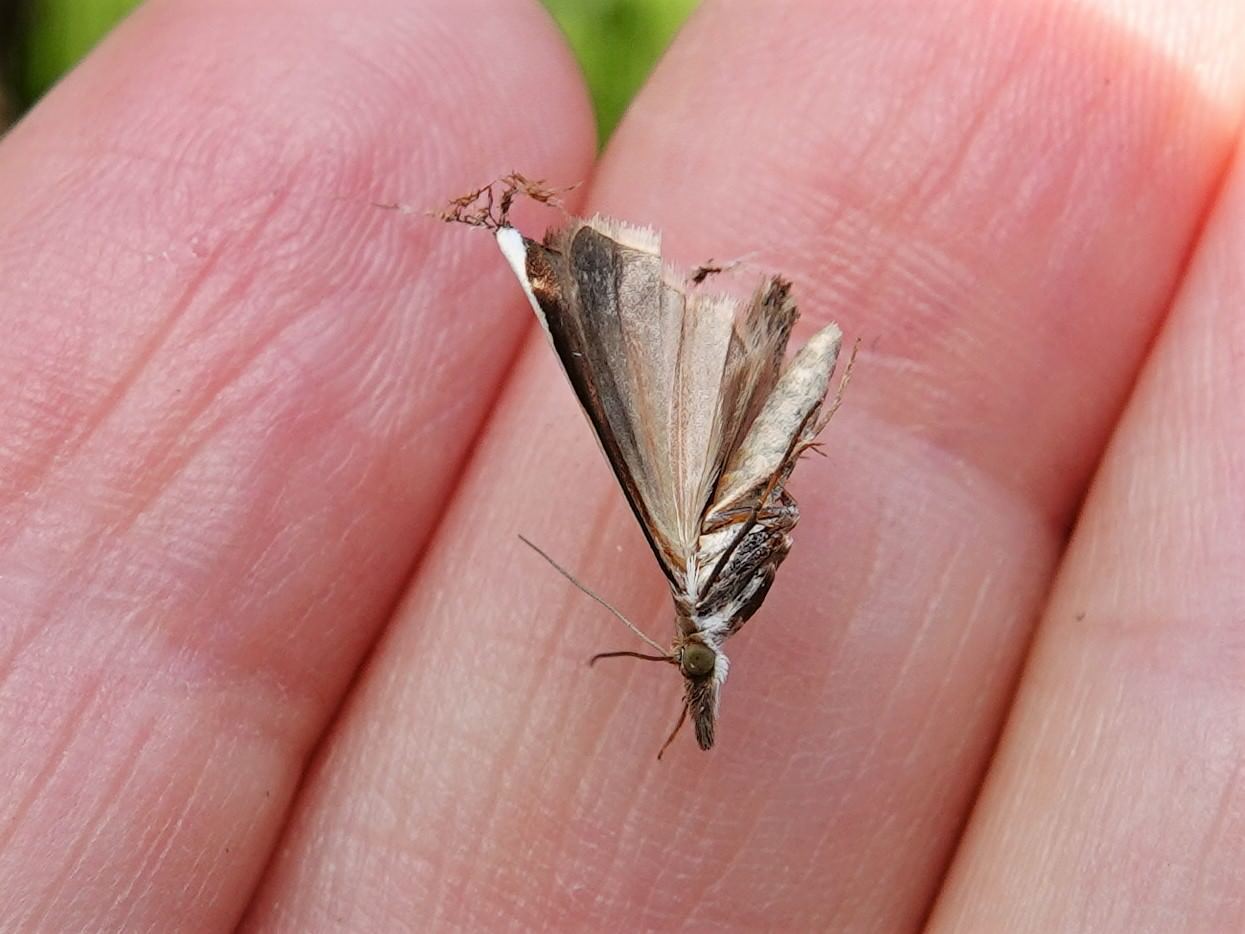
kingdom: Animalia
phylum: Arthropoda
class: Insecta
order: Lepidoptera
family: Crambidae
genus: Orocrambus
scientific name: Orocrambus flexuosellus
